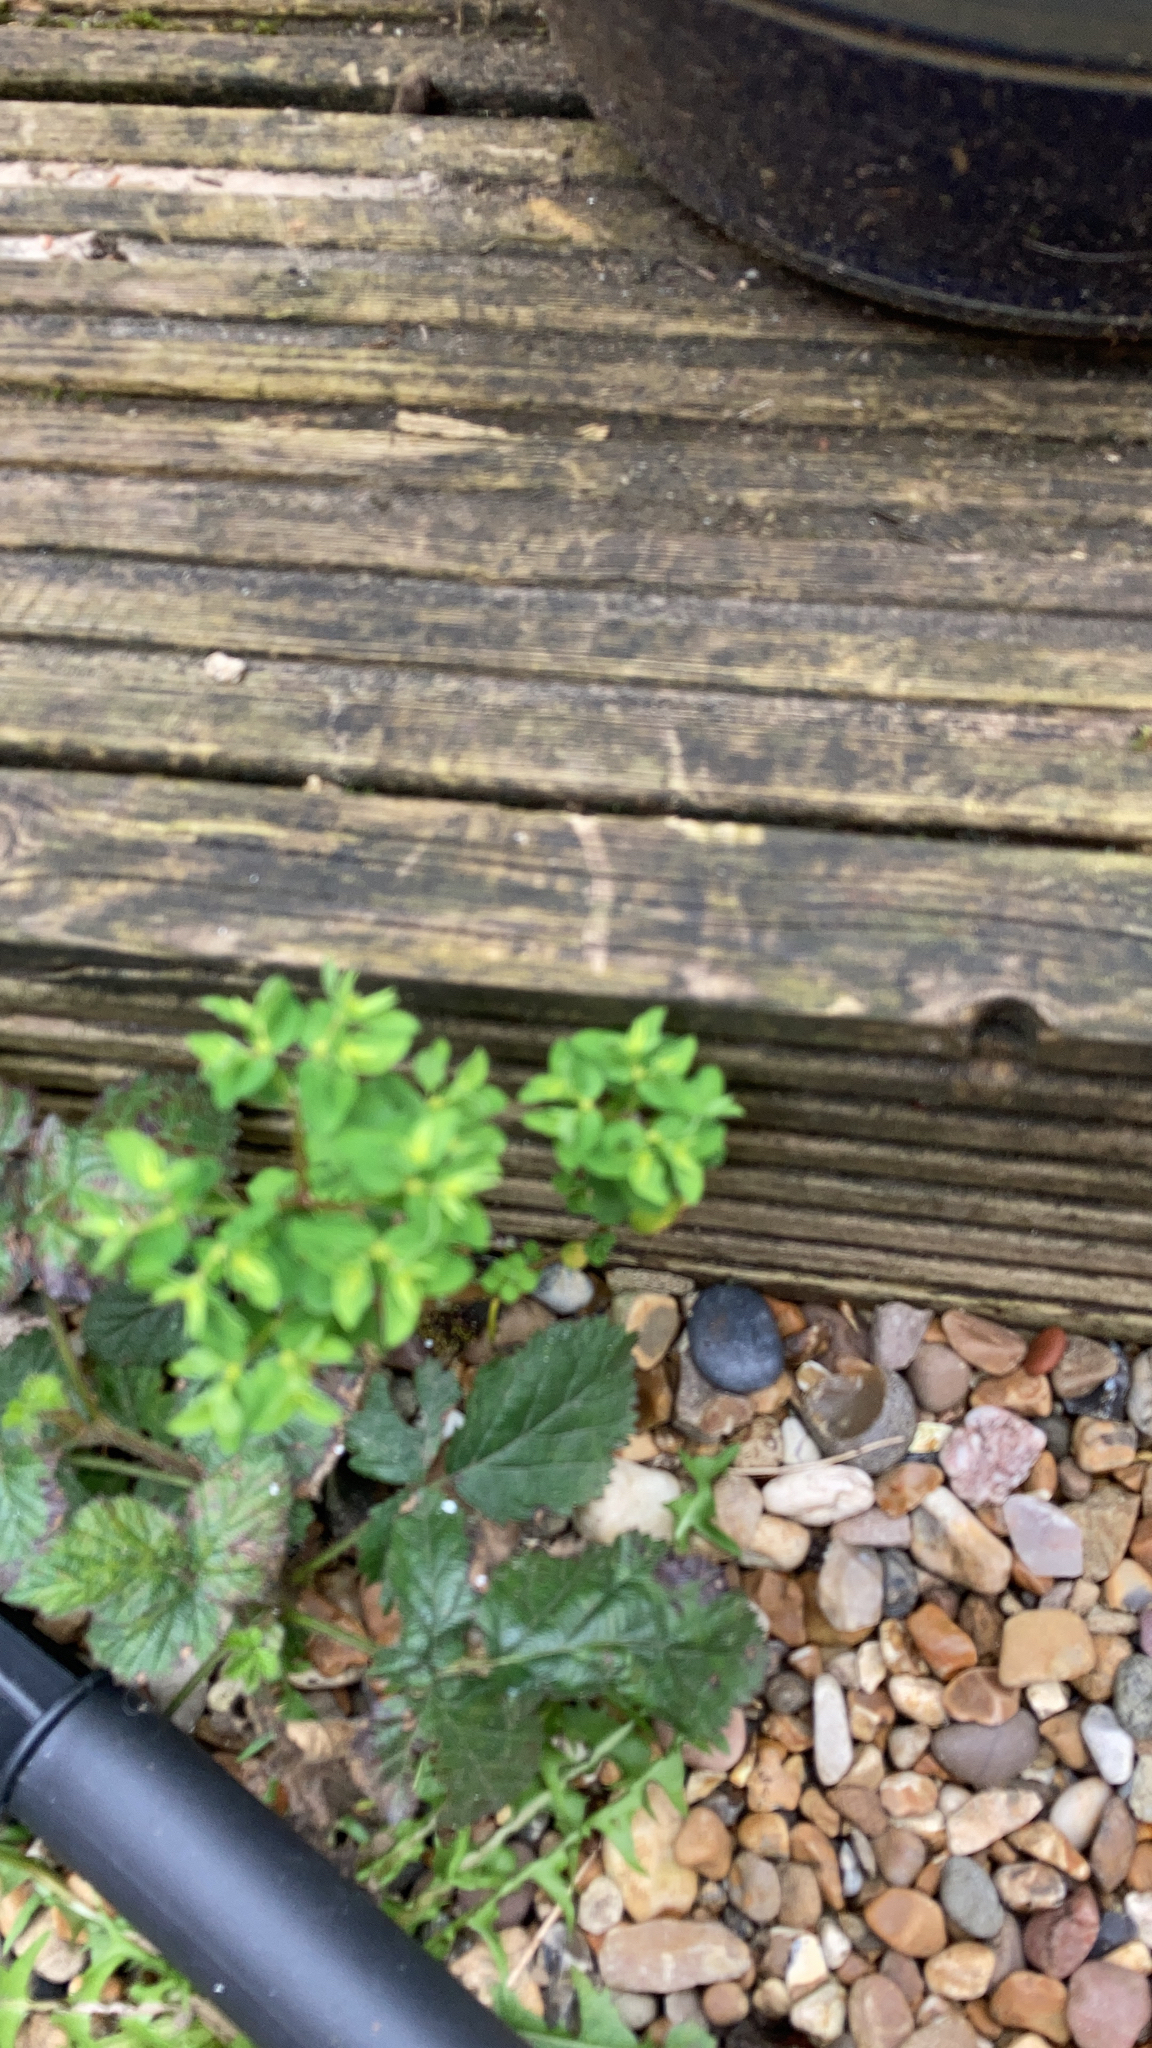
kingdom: Plantae
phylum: Tracheophyta
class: Magnoliopsida
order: Malpighiales
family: Euphorbiaceae
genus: Euphorbia
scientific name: Euphorbia peplus
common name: Petty spurge
